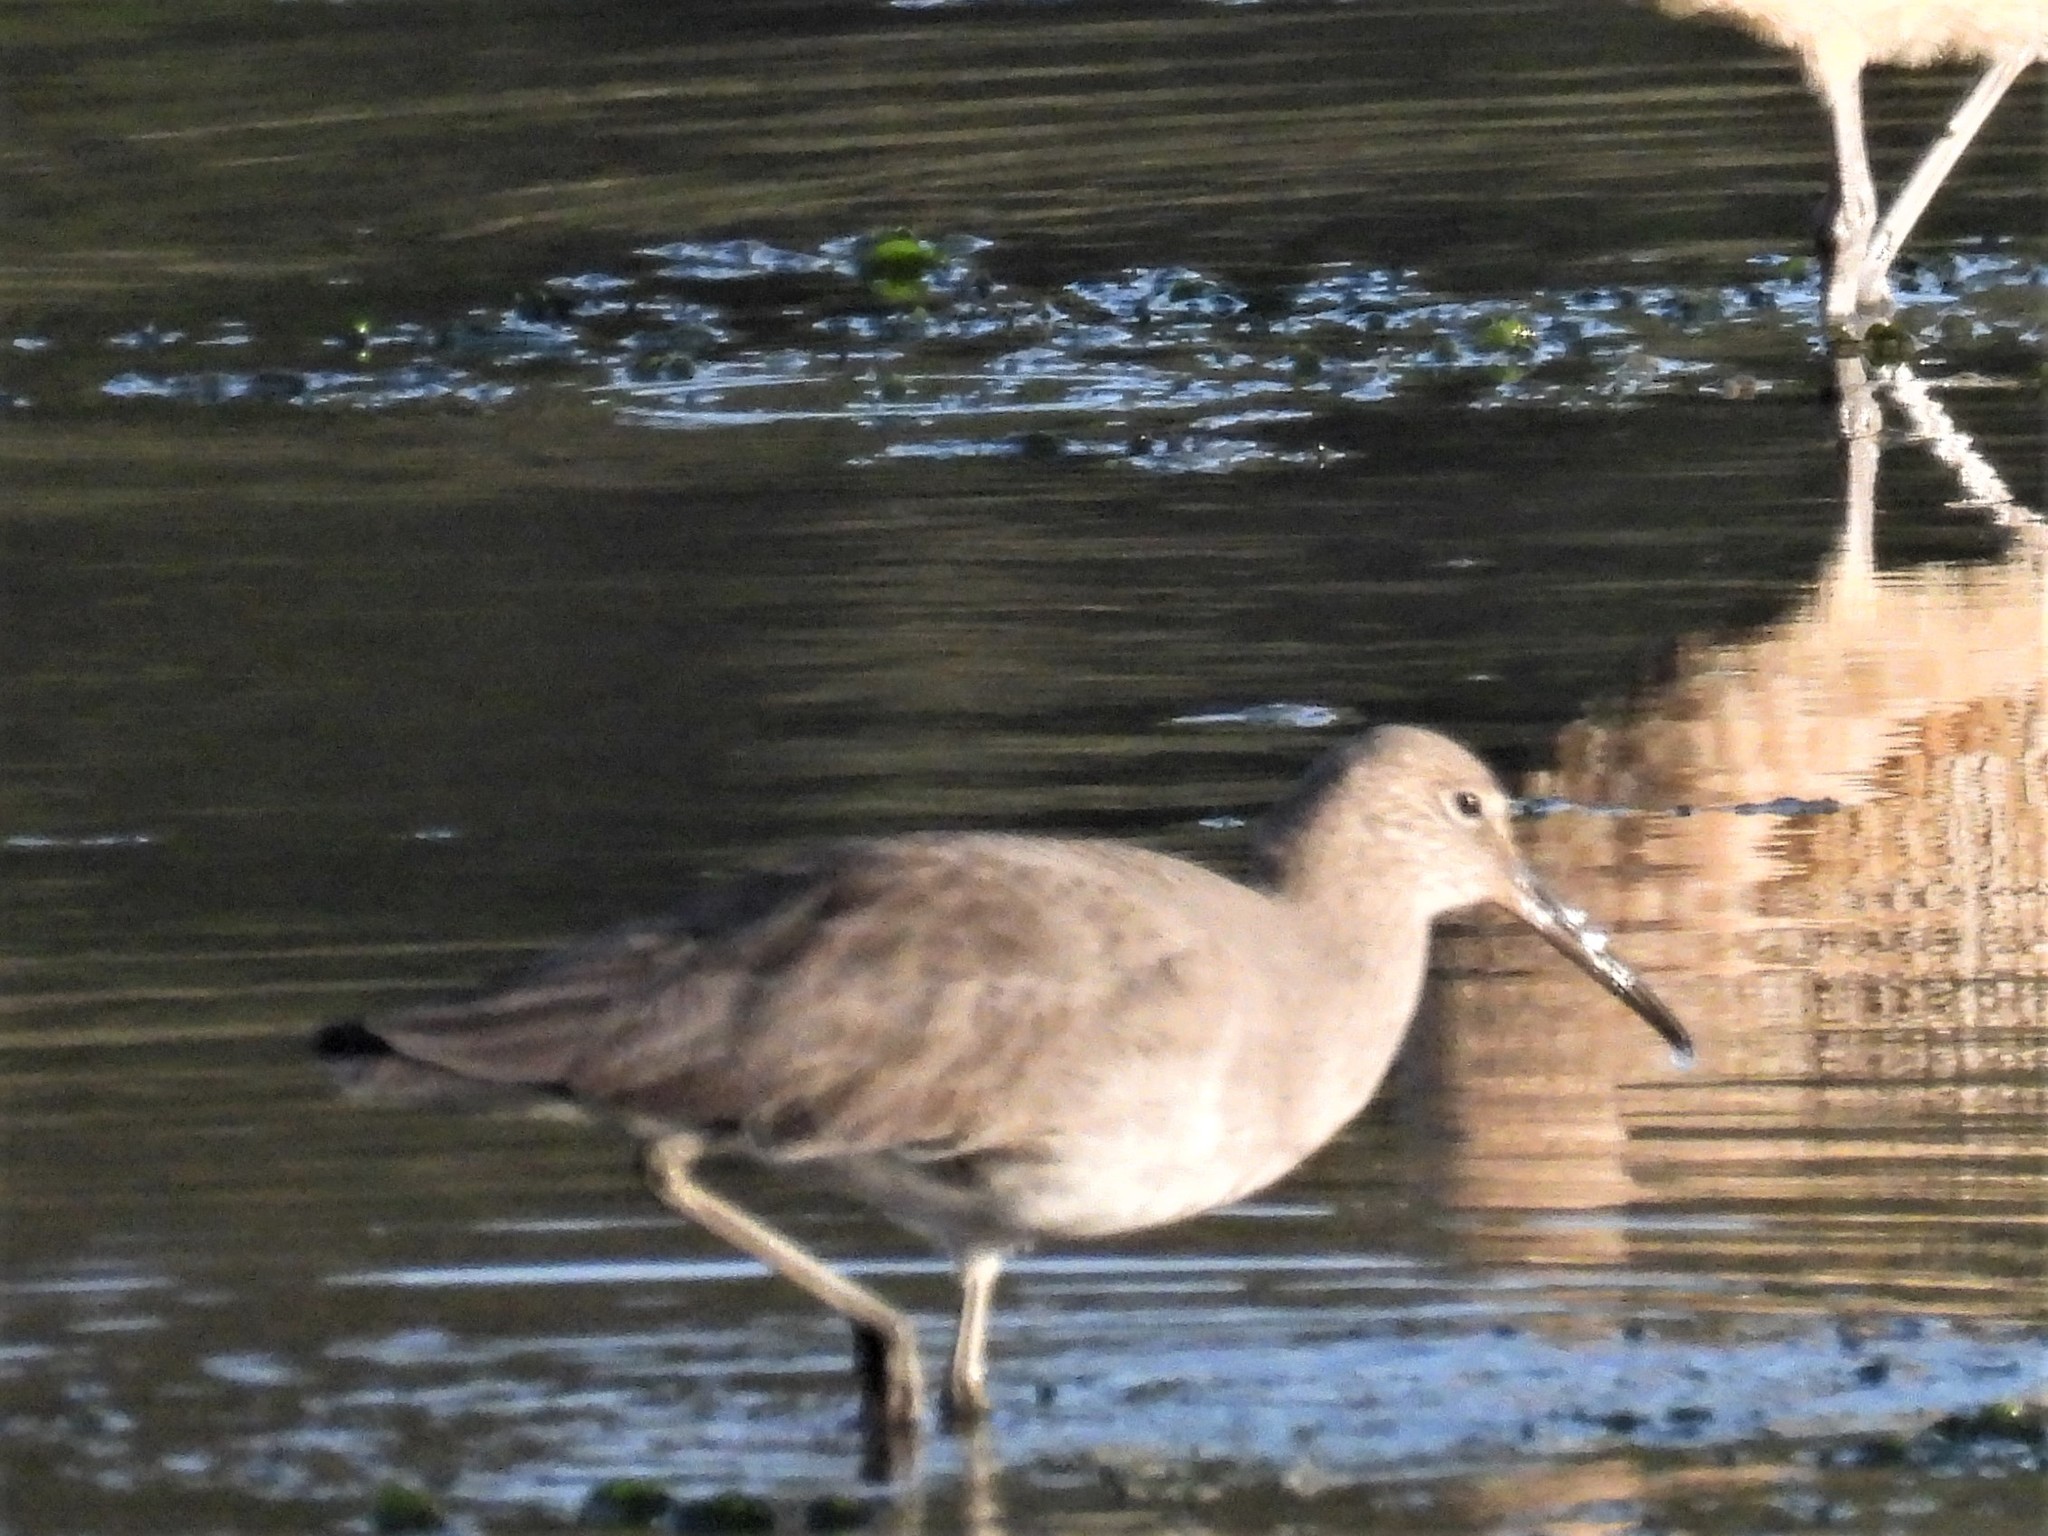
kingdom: Animalia
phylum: Chordata
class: Aves
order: Charadriiformes
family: Scolopacidae
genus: Tringa
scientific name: Tringa semipalmata
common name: Willet
